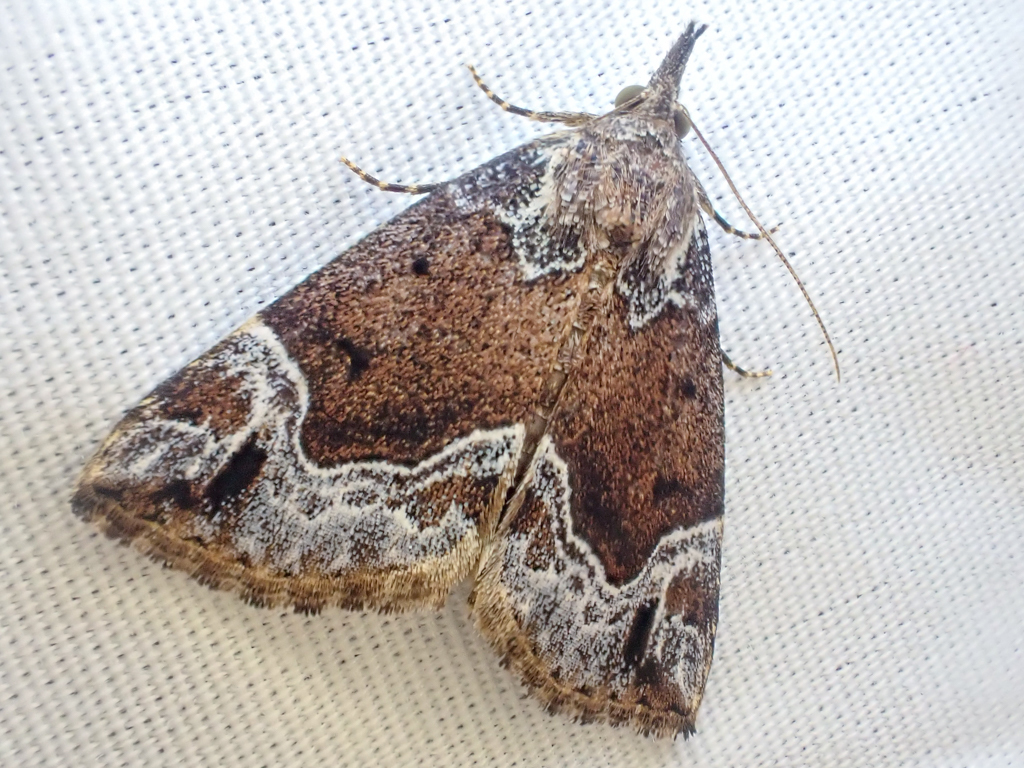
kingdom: Animalia
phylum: Arthropoda
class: Insecta
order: Lepidoptera
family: Erebidae
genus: Hypena
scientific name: Hypena abalienalis
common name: White-lined snout
